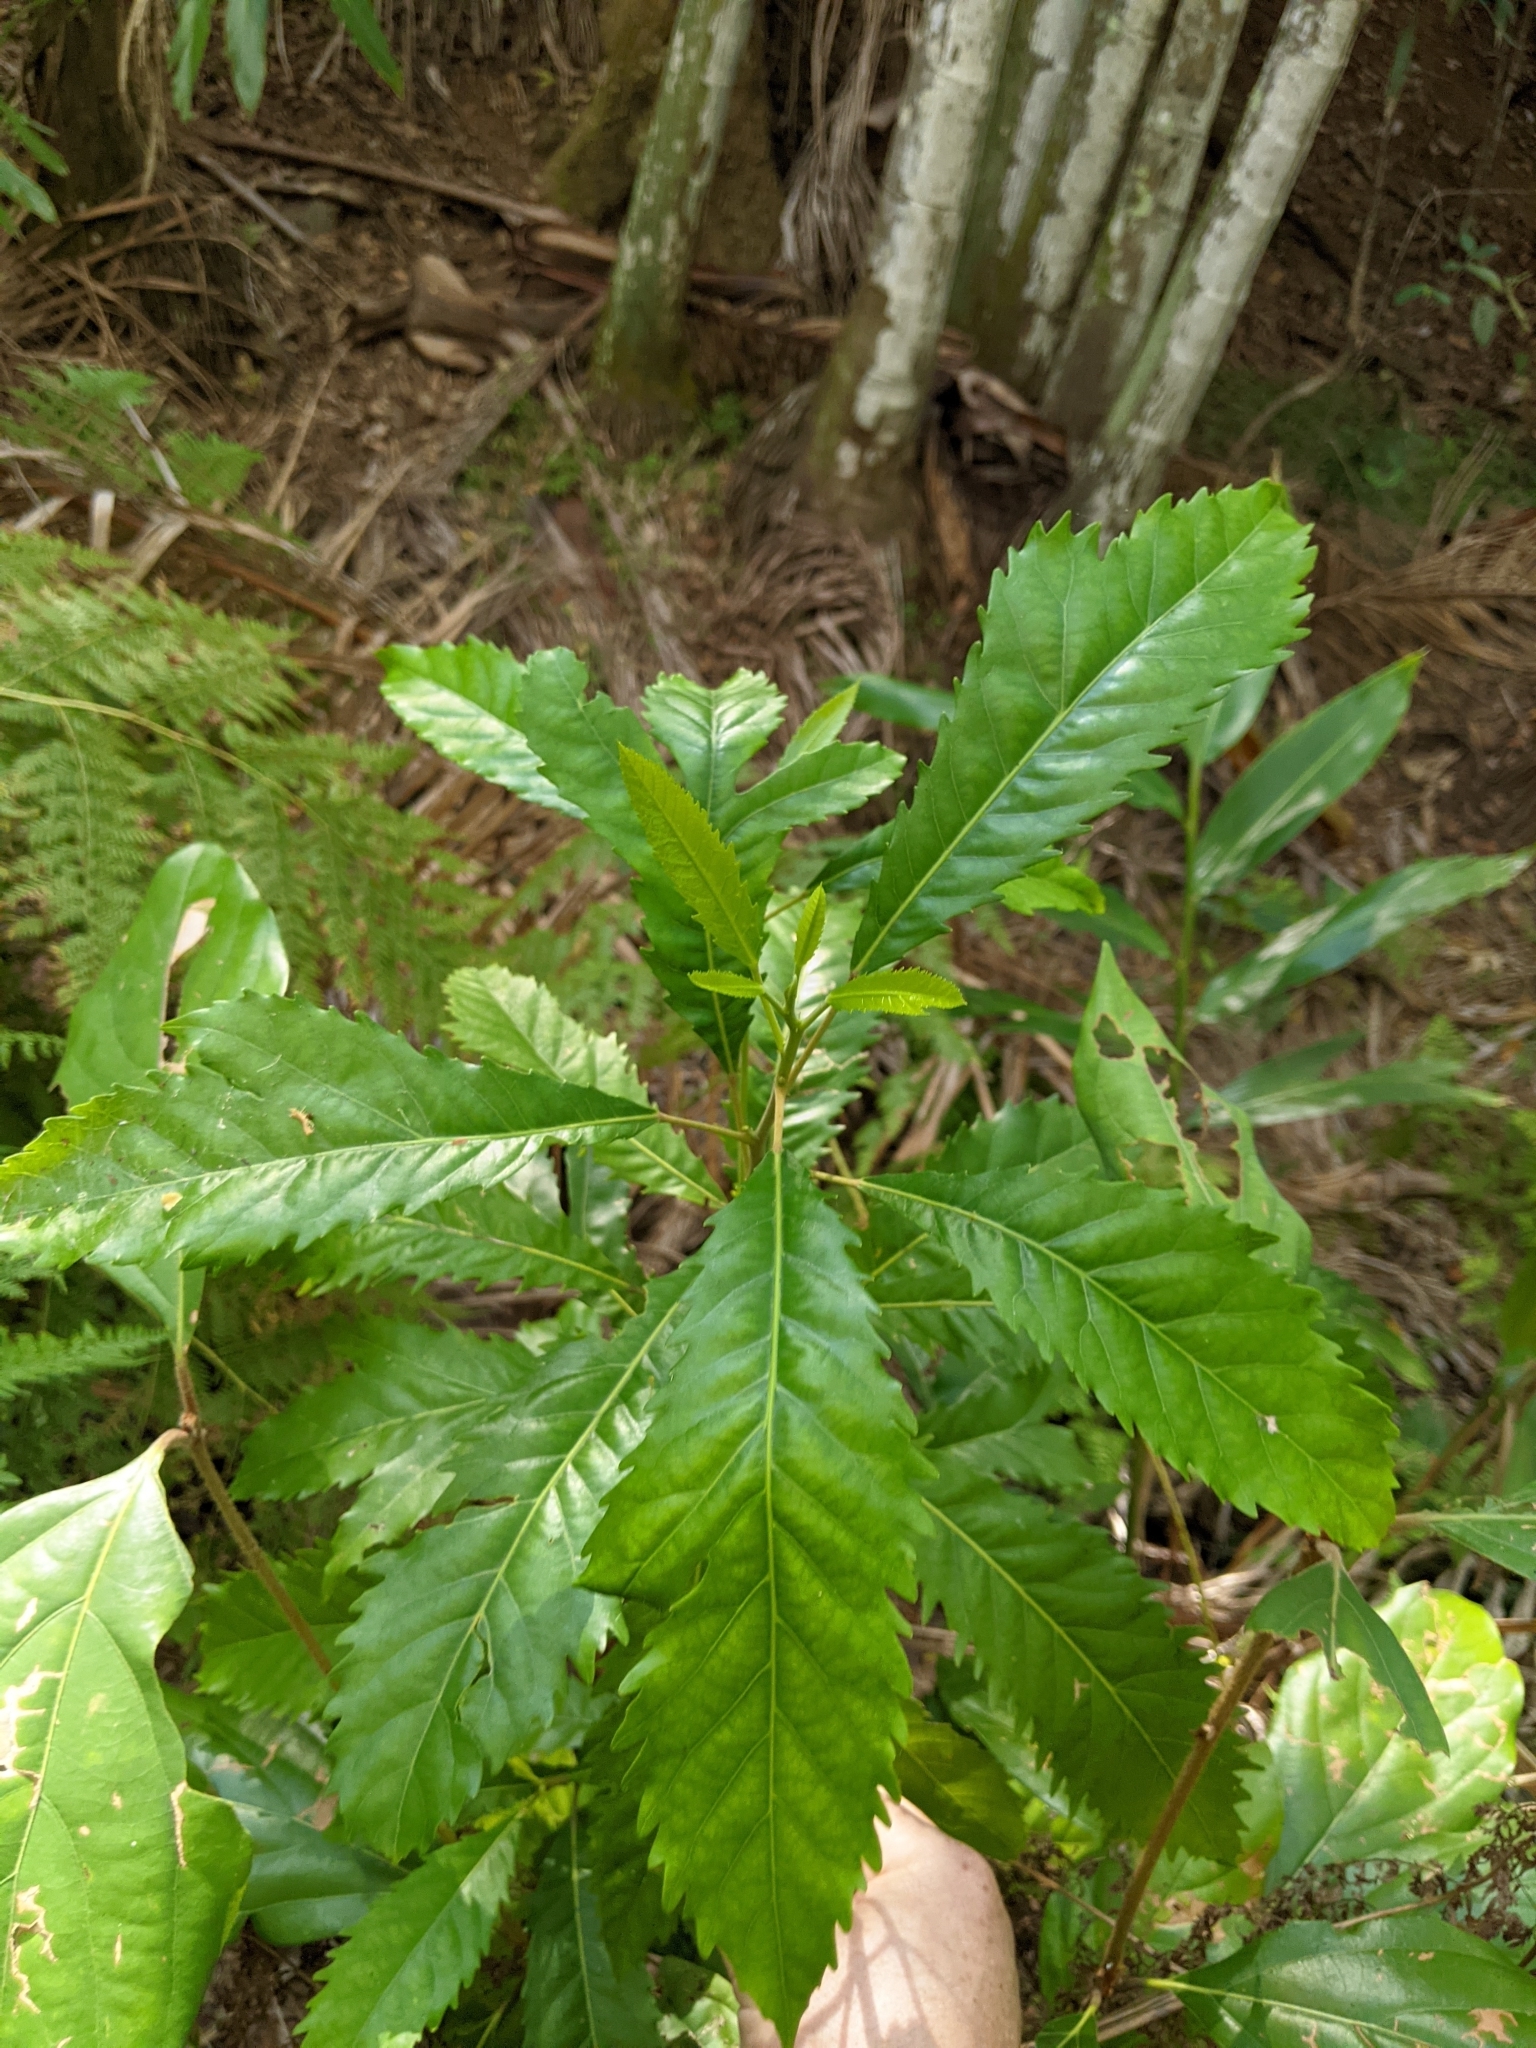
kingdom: Plantae
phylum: Tracheophyta
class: Magnoliopsida
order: Oxalidales
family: Elaeocarpaceae
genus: Sloanea
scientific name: Sloanea woollsii
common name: Yellow carabeen
